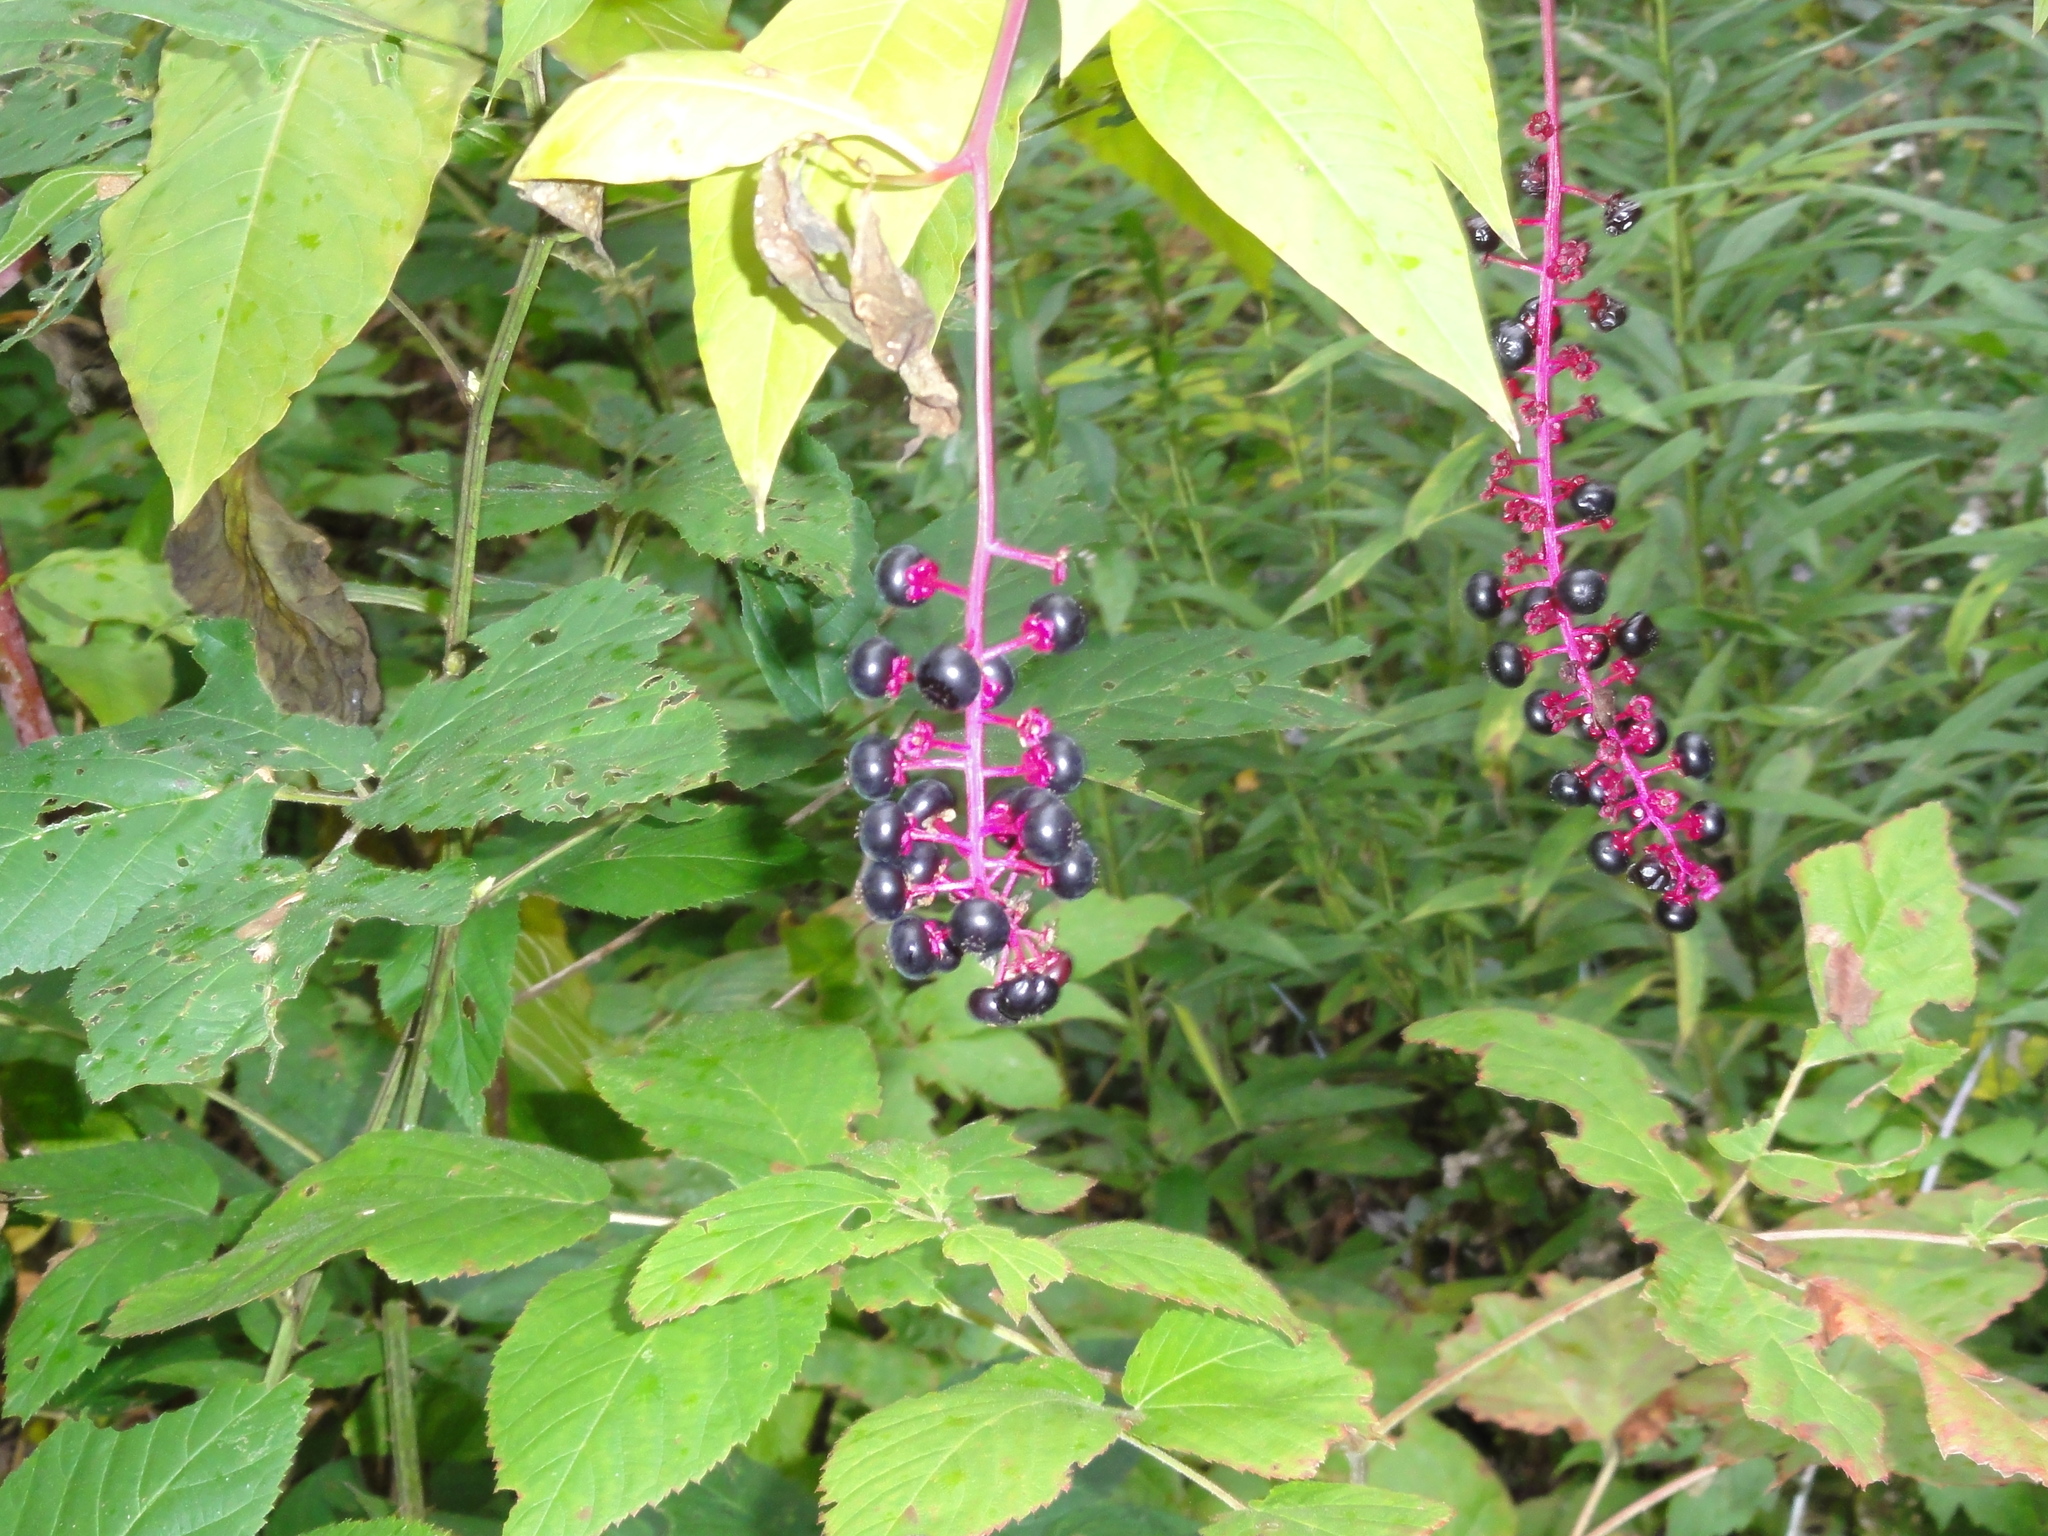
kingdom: Plantae
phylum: Tracheophyta
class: Magnoliopsida
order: Caryophyllales
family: Phytolaccaceae
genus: Phytolacca
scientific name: Phytolacca americana
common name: American pokeweed
